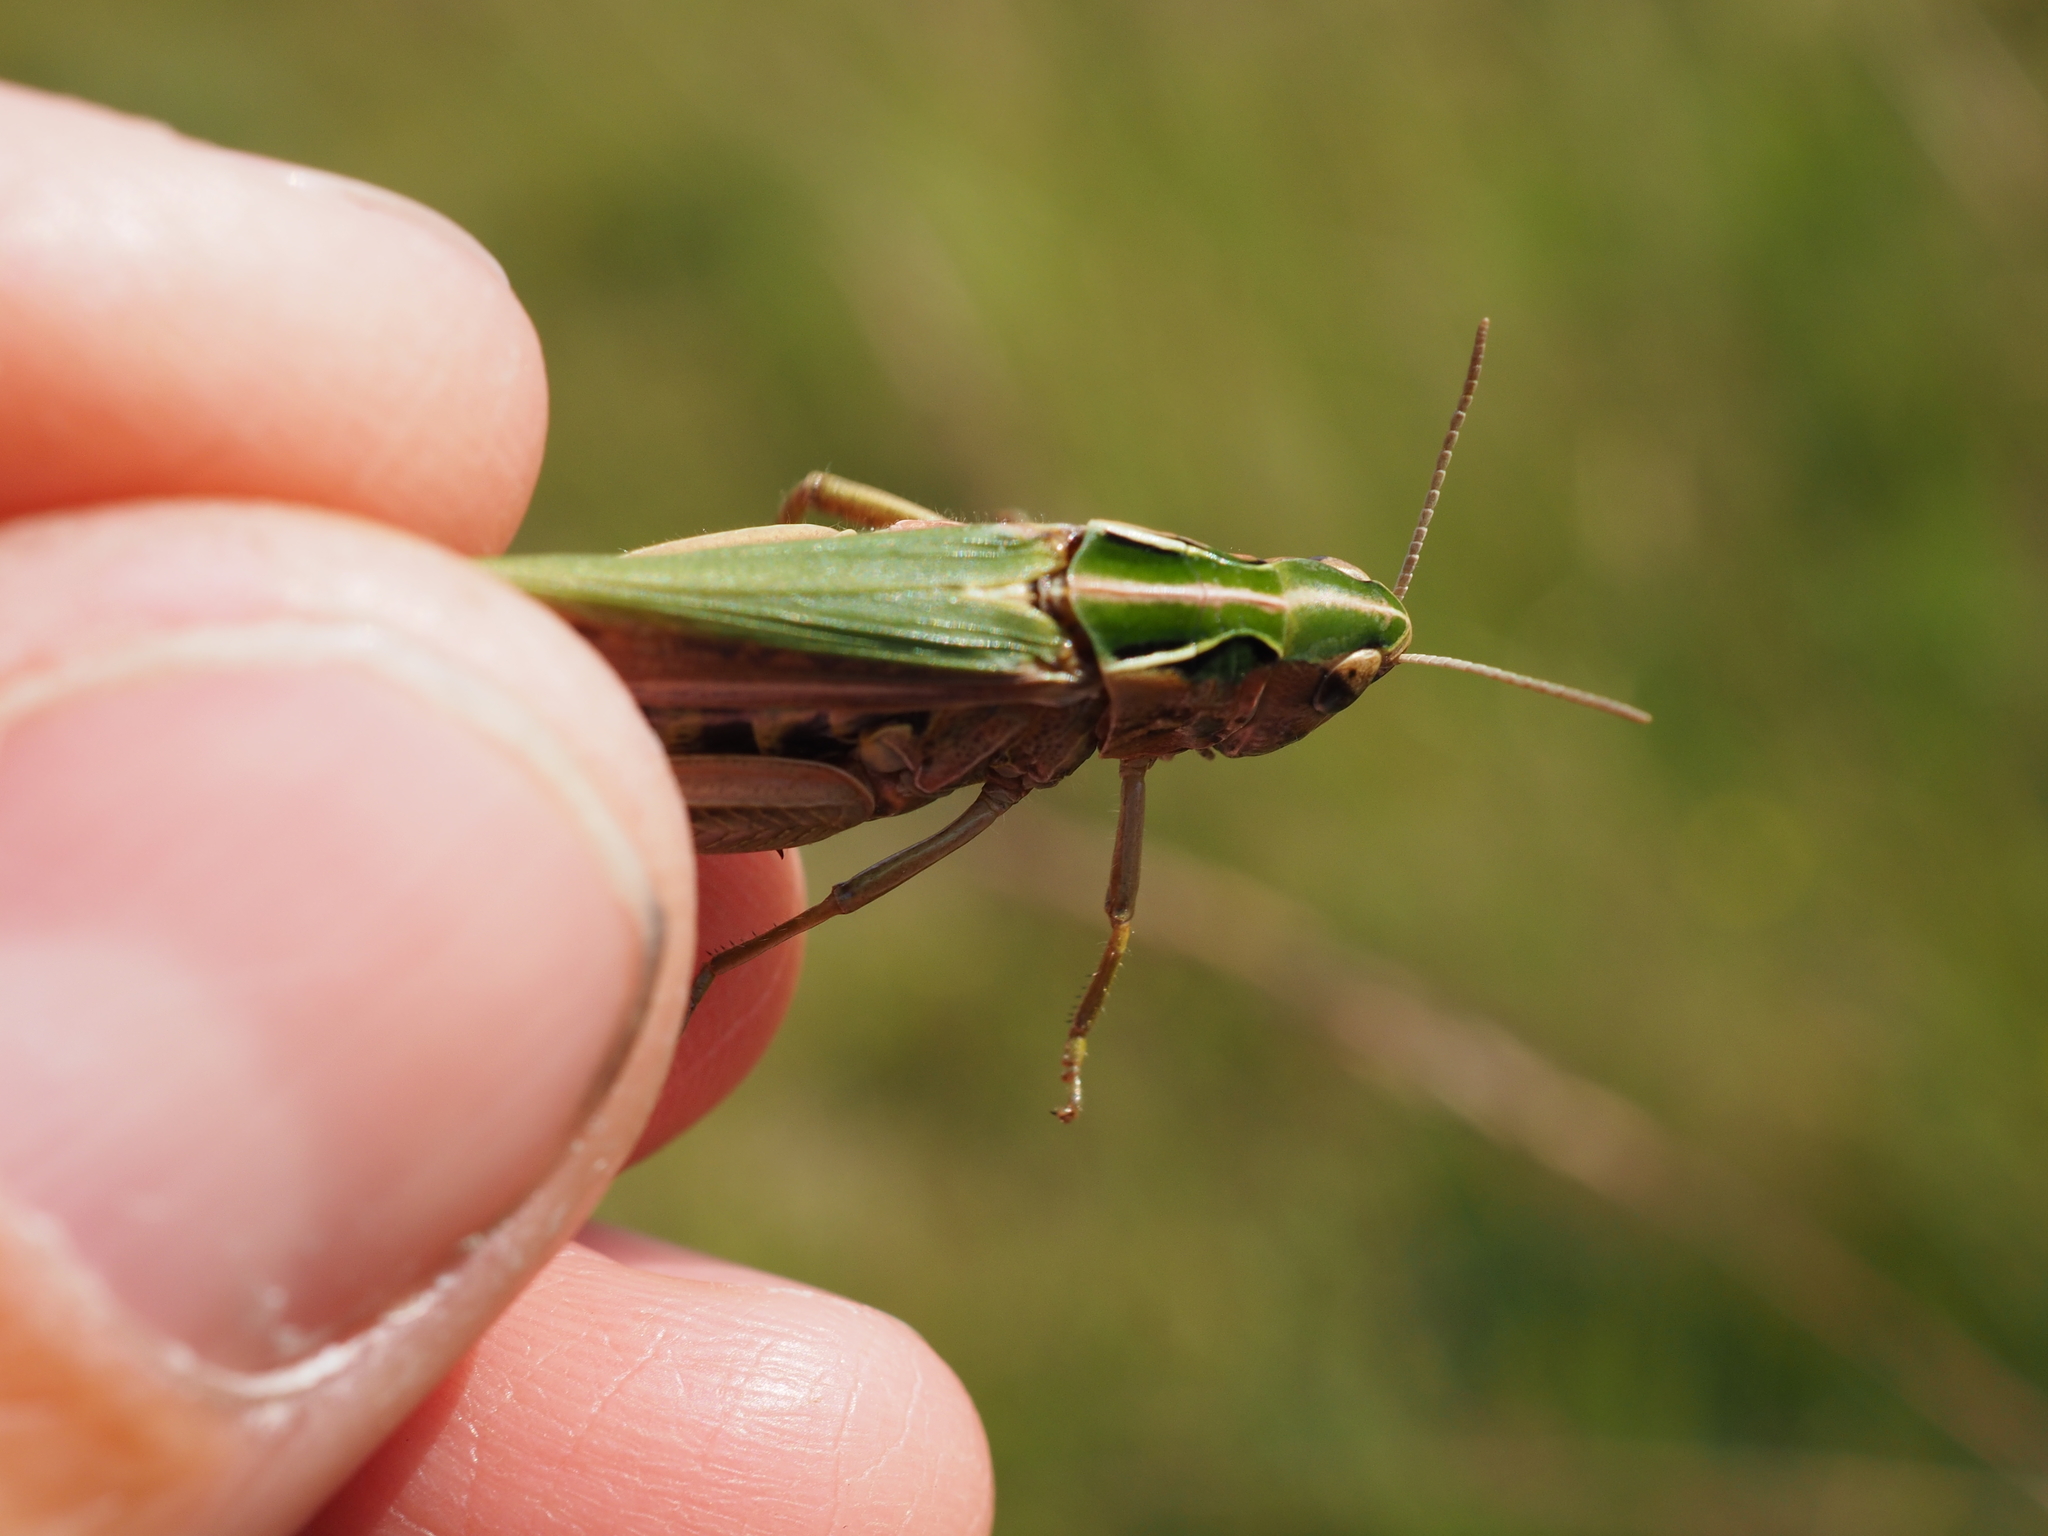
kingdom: Animalia
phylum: Arthropoda
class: Insecta
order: Orthoptera
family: Acrididae
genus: Omocestus
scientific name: Omocestus viridulus
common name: Common green grasshopper
